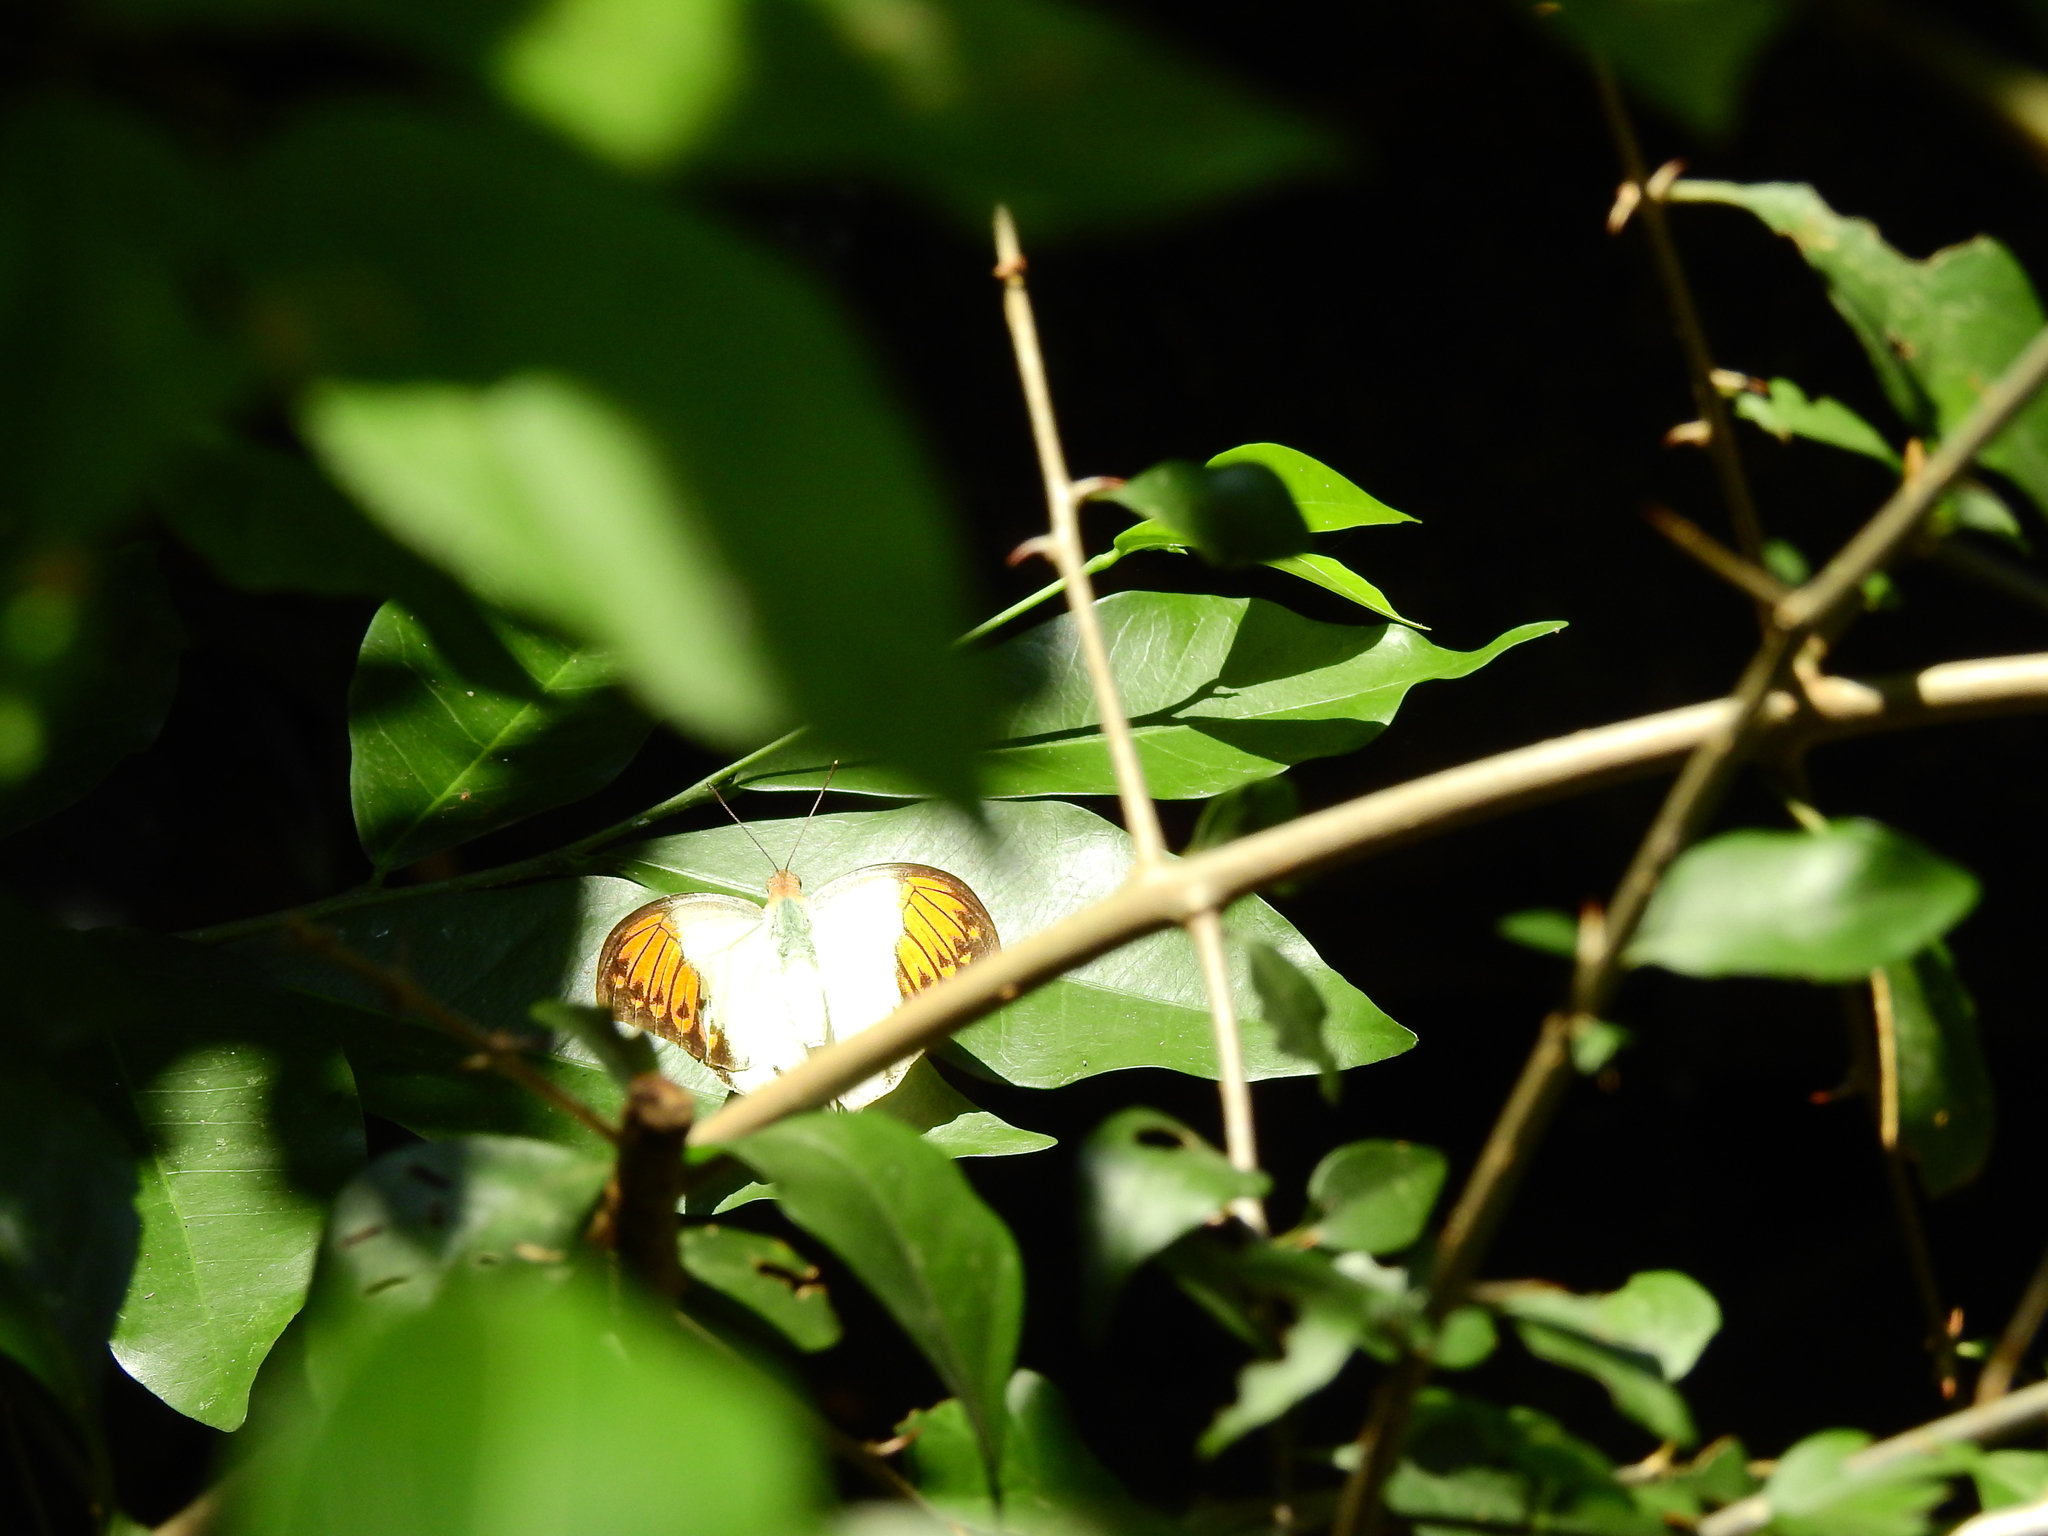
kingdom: Animalia
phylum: Arthropoda
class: Insecta
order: Lepidoptera
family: Pieridae
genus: Hebomoia
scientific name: Hebomoia glaucippe
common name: Great orange tip
